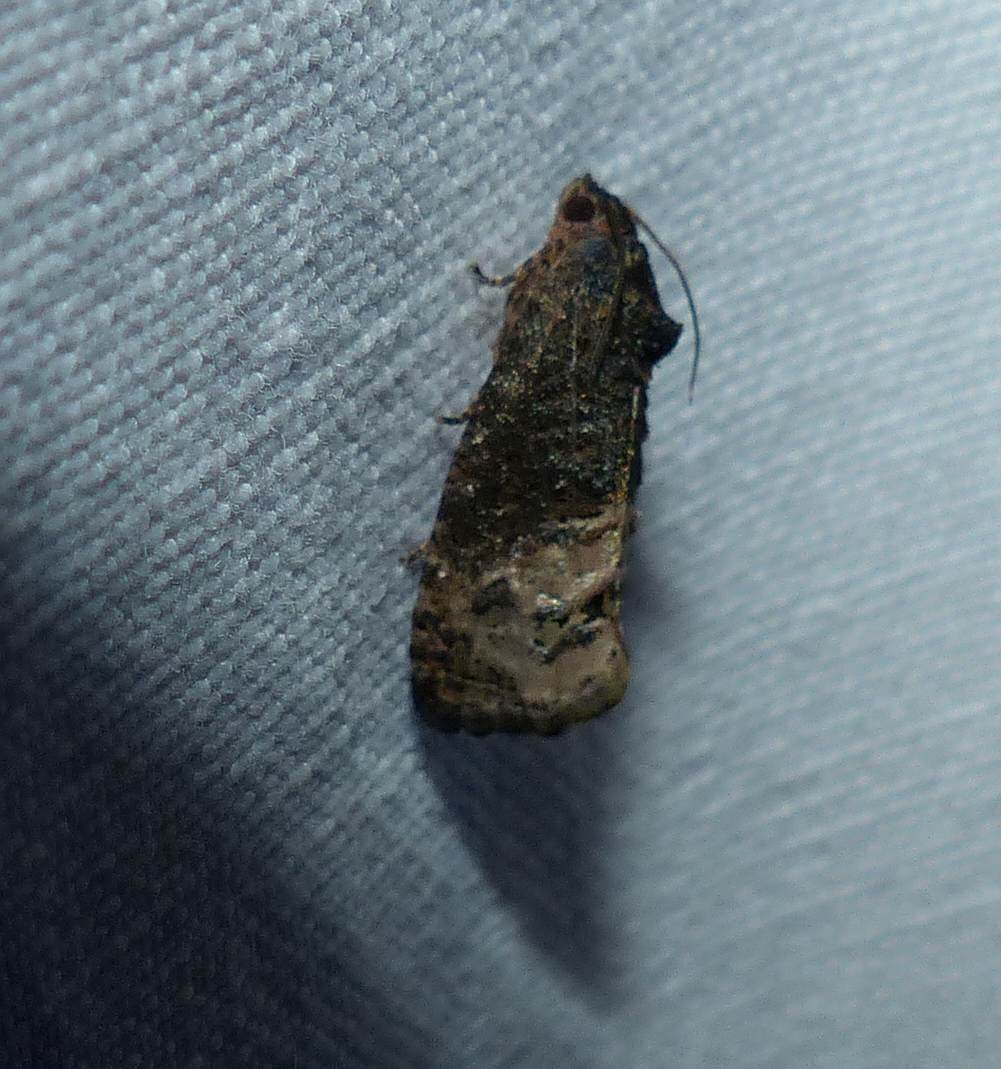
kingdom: Animalia
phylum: Arthropoda
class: Insecta
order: Lepidoptera
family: Tortricidae
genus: Ecdytolopha
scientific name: Ecdytolopha insiticiana
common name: Locust twig borer moth
